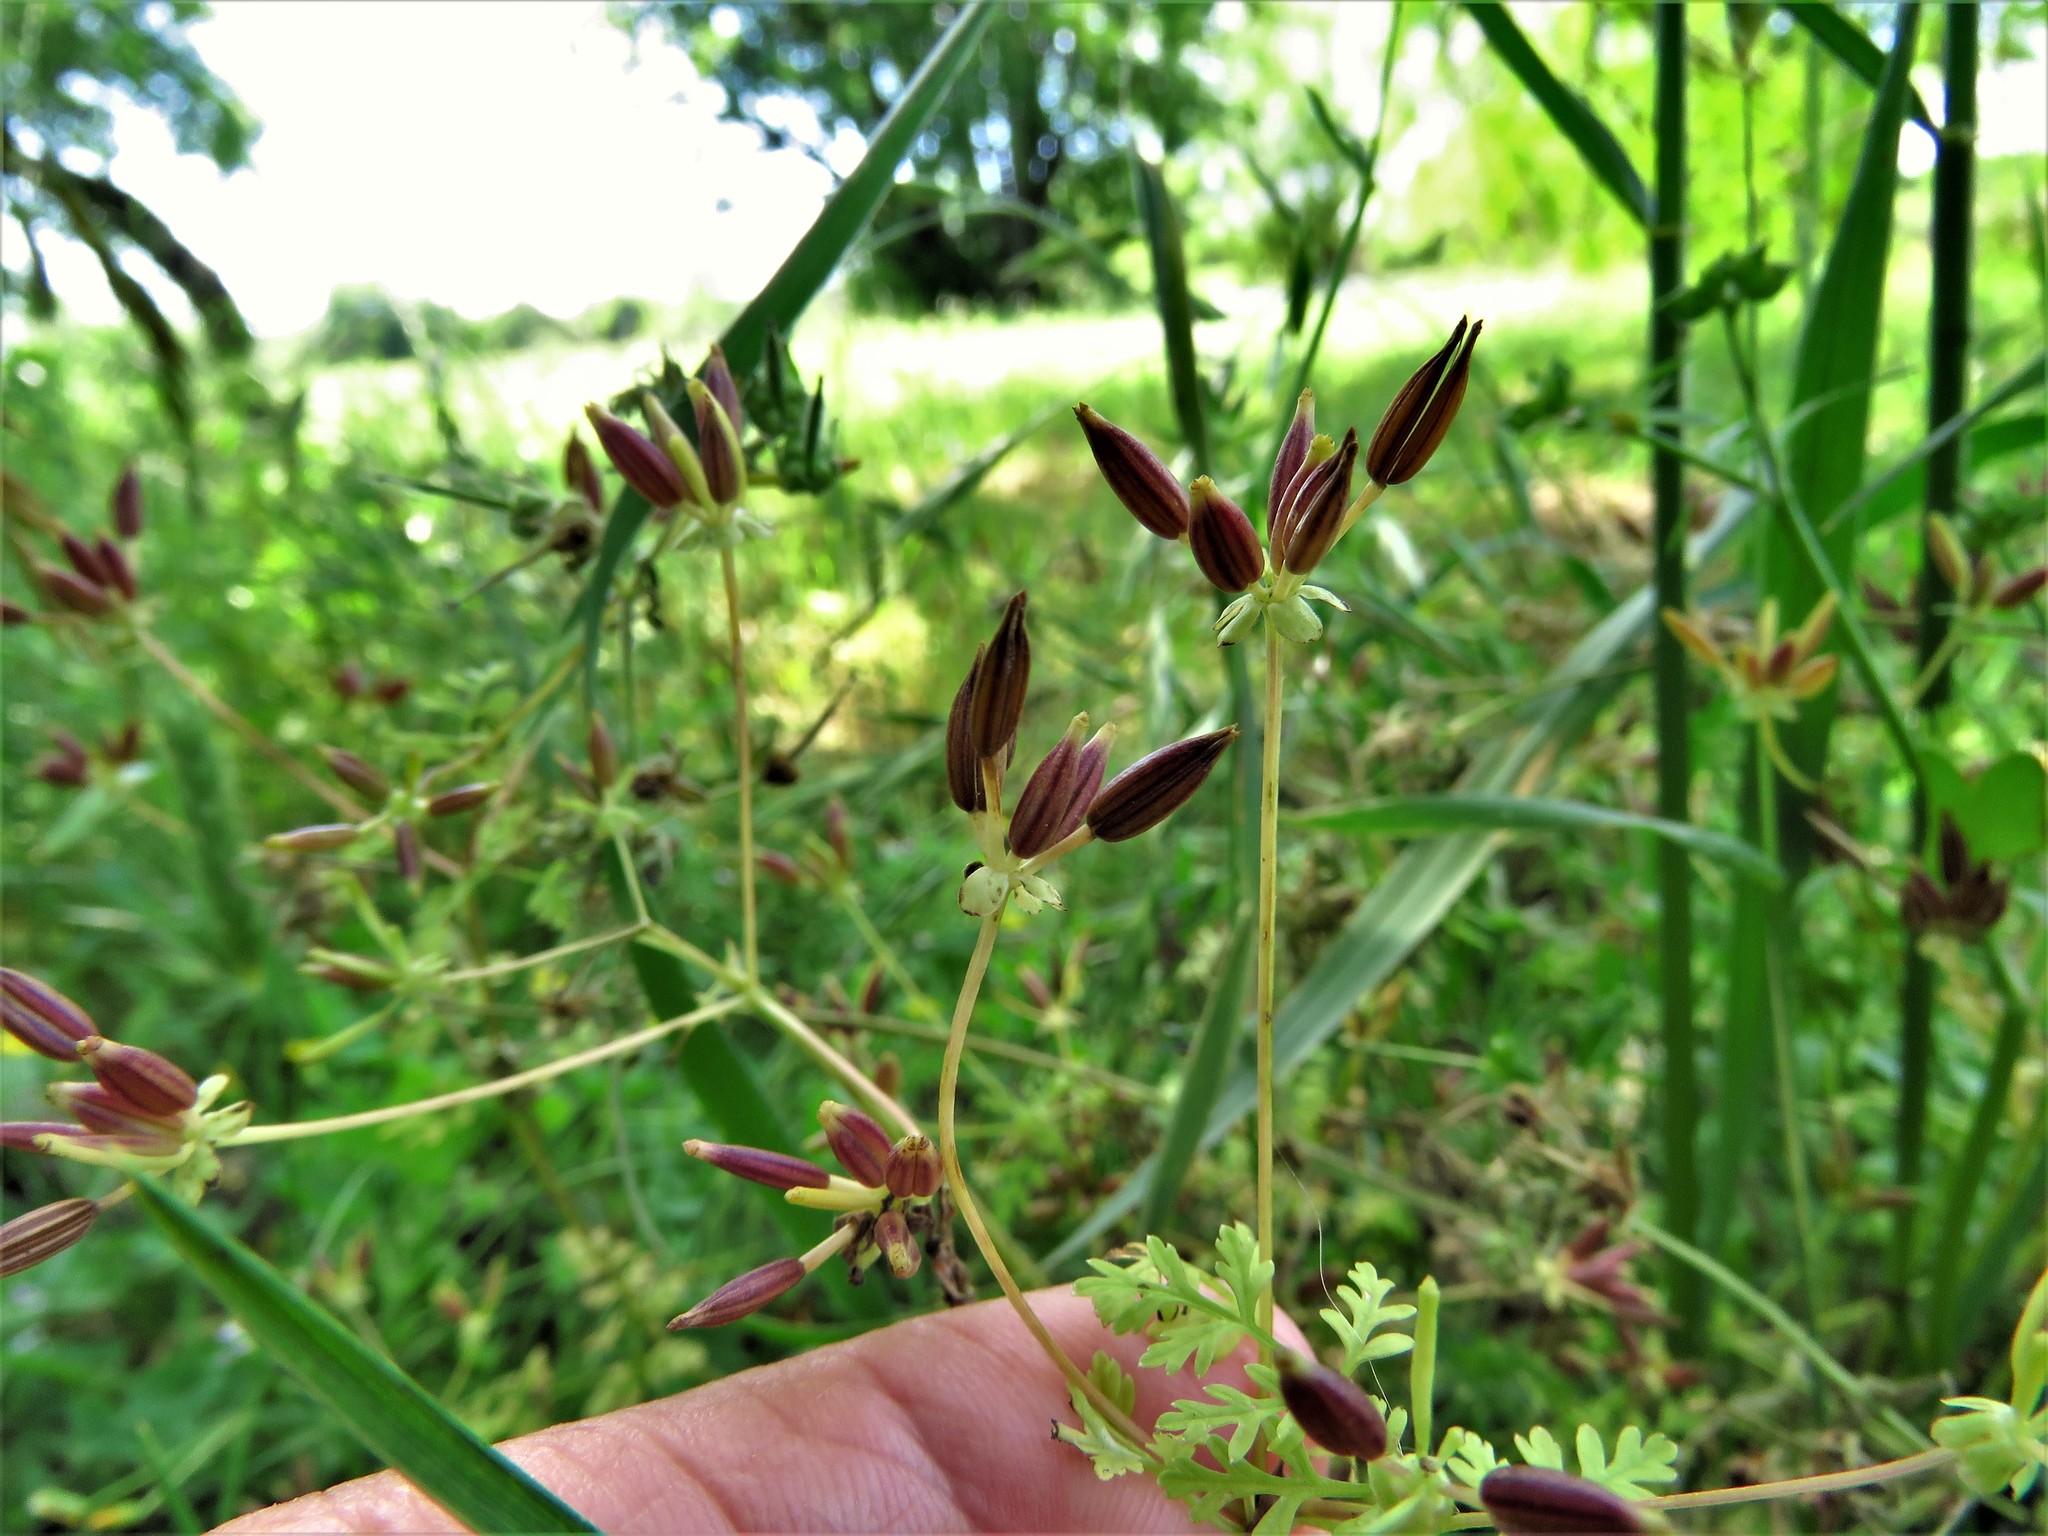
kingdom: Plantae
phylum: Tracheophyta
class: Magnoliopsida
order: Apiales
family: Apiaceae
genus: Chaerophyllum
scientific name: Chaerophyllum tainturieri
